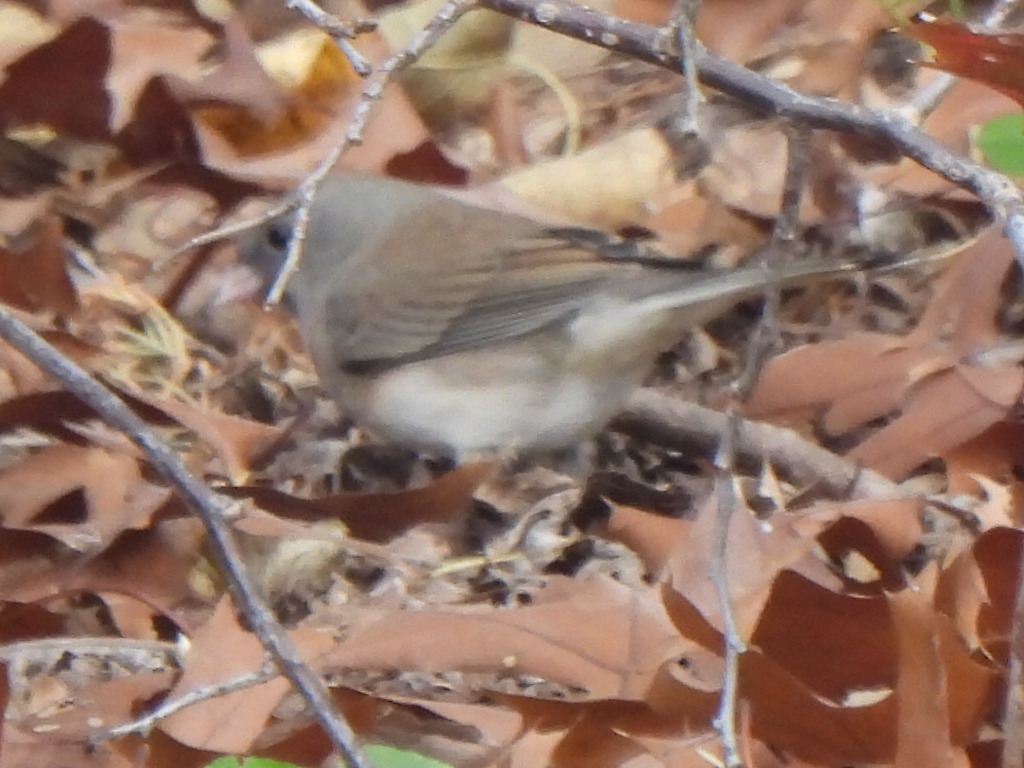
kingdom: Animalia
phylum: Chordata
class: Aves
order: Passeriformes
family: Passerellidae
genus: Junco
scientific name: Junco hyemalis
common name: Dark-eyed junco
